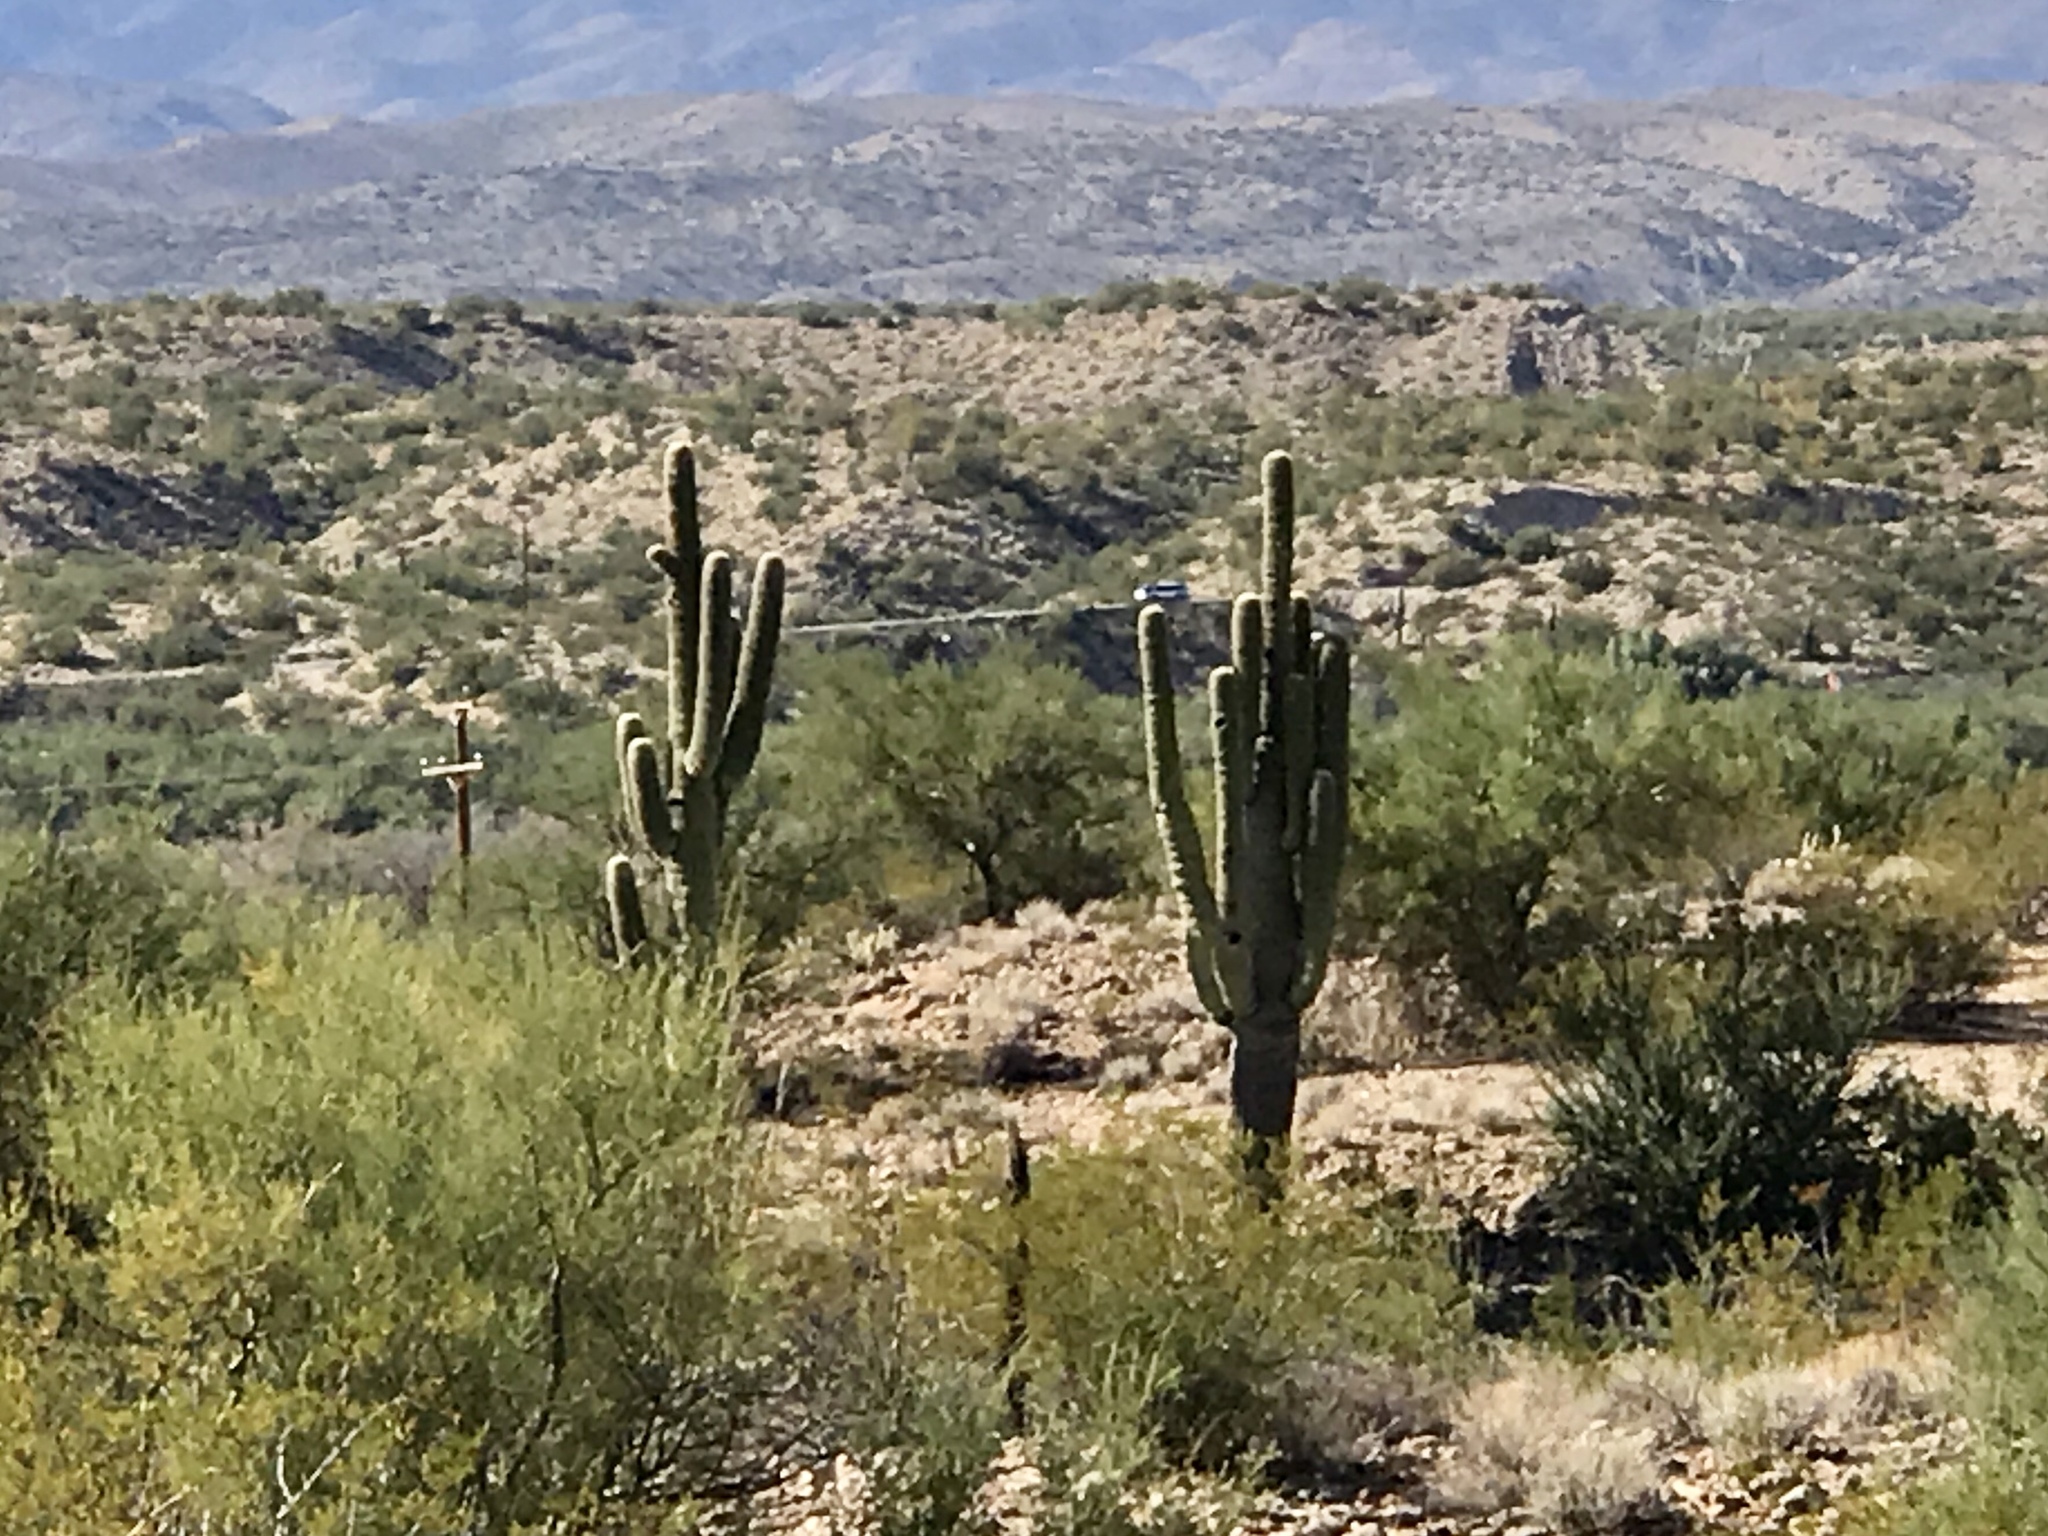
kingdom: Plantae
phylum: Tracheophyta
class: Magnoliopsida
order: Caryophyllales
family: Cactaceae
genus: Carnegiea
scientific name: Carnegiea gigantea
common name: Saguaro
